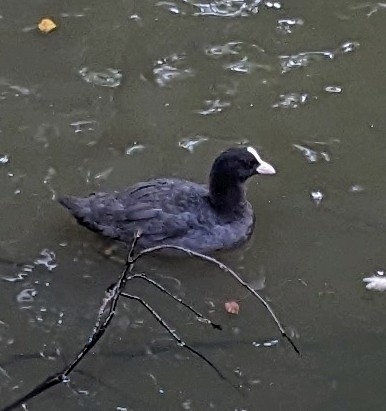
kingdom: Animalia
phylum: Chordata
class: Aves
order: Gruiformes
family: Rallidae
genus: Fulica
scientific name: Fulica atra
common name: Eurasian coot
